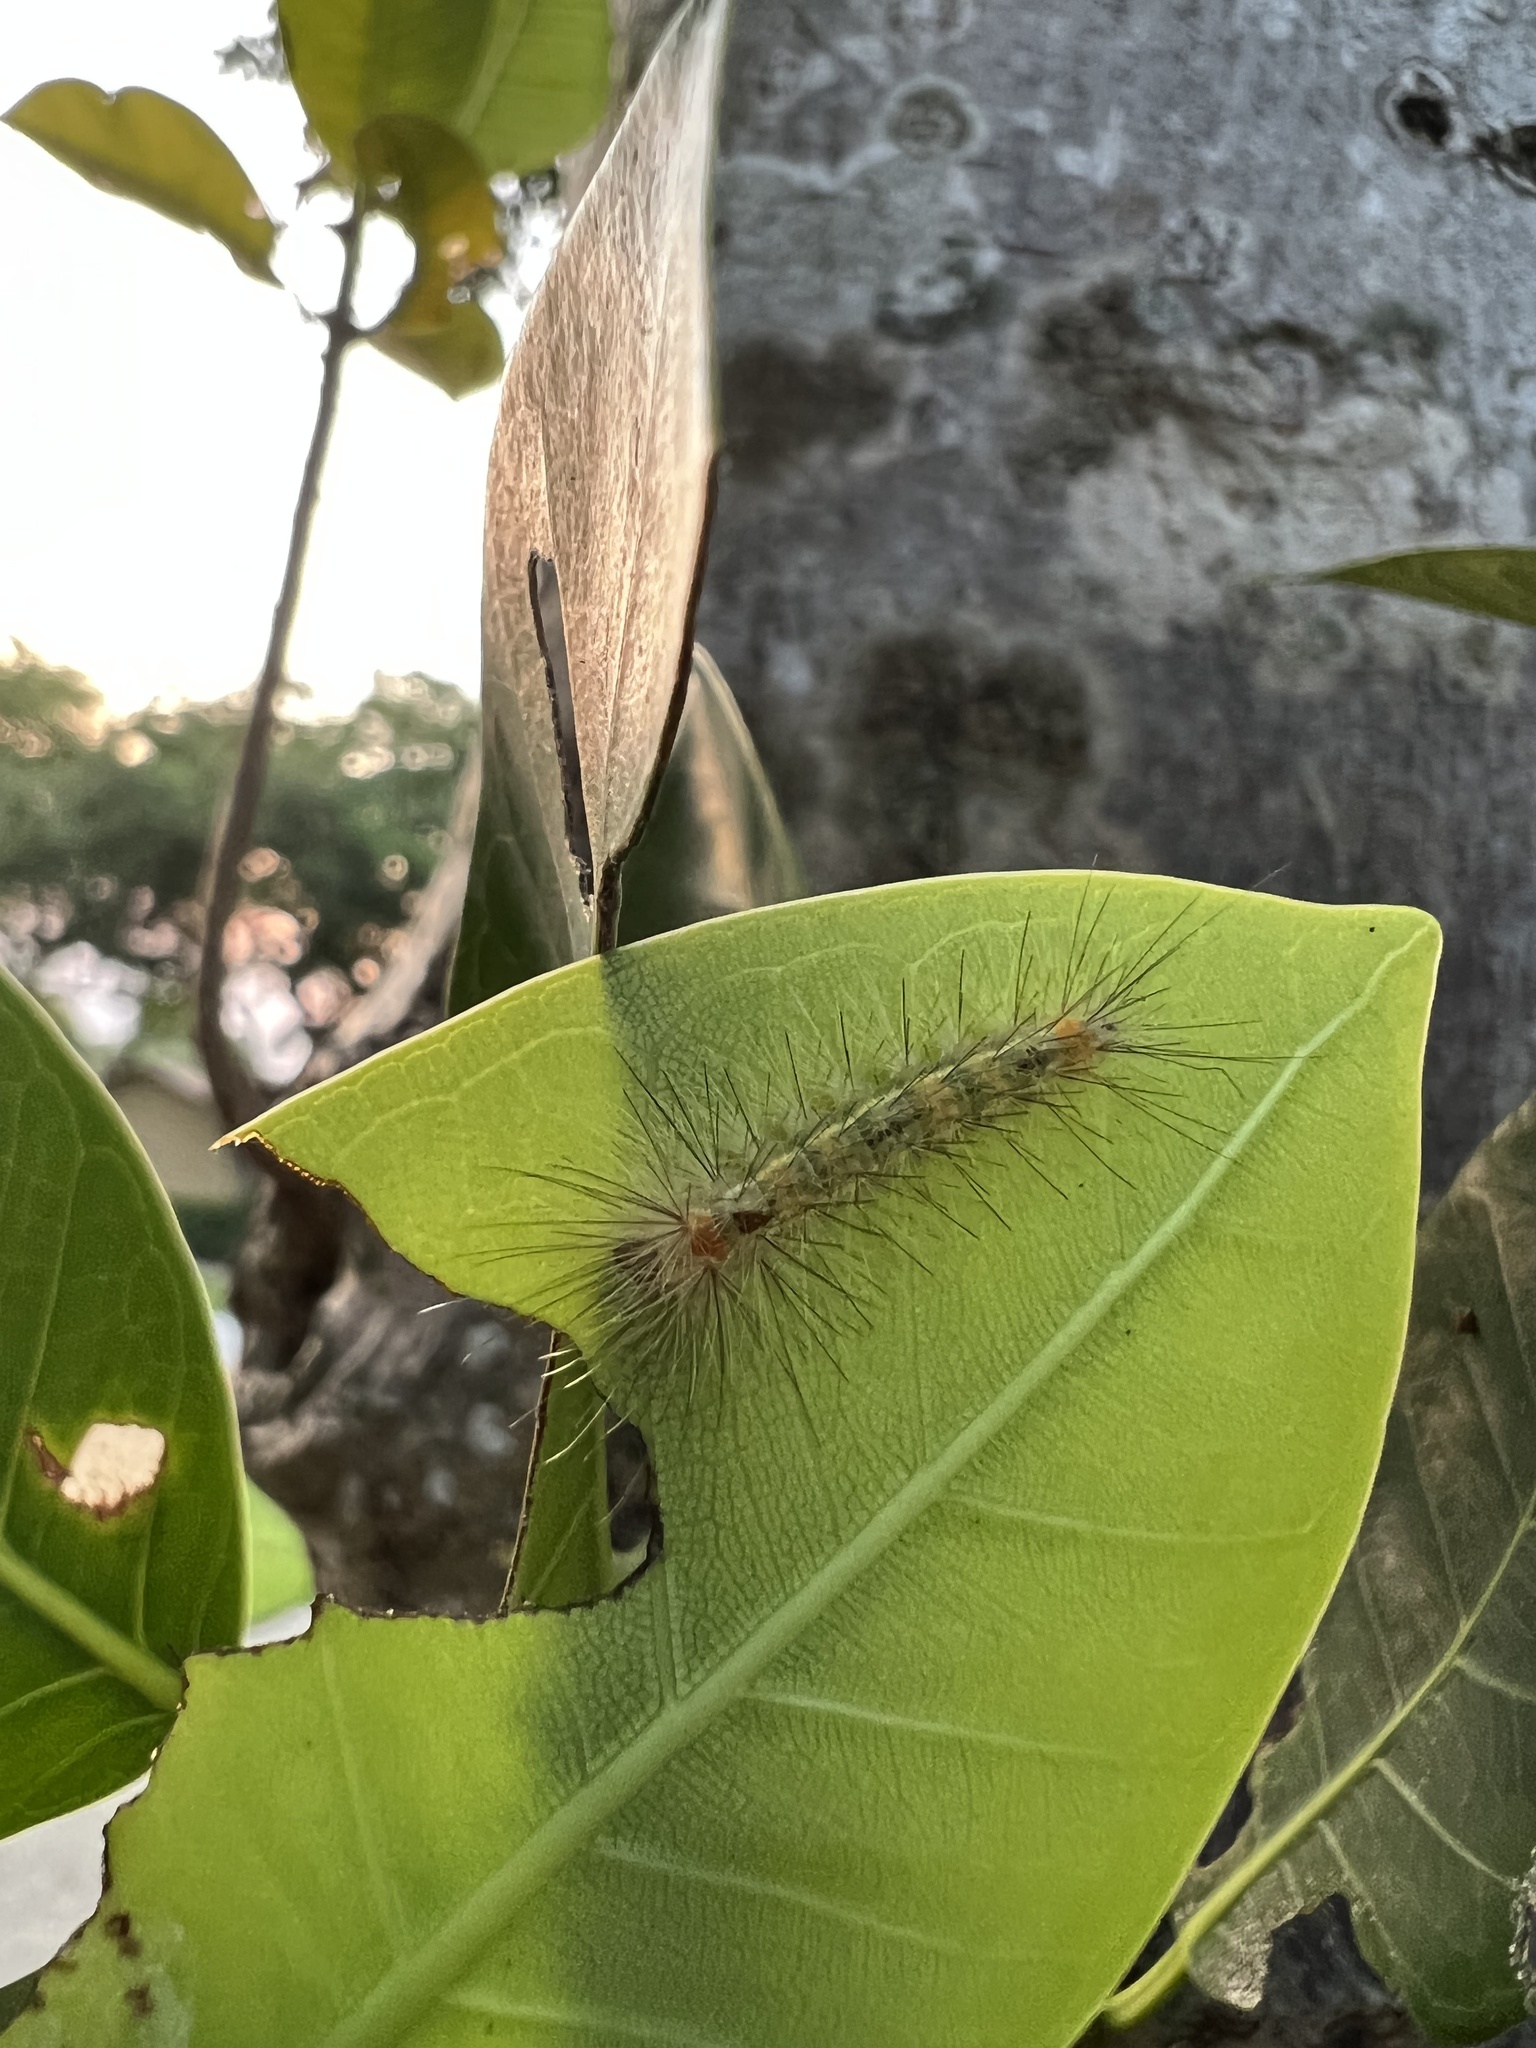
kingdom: Animalia
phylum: Arthropoda
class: Insecta
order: Lepidoptera
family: Erebidae
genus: Lymire
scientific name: Lymire edwardsii
